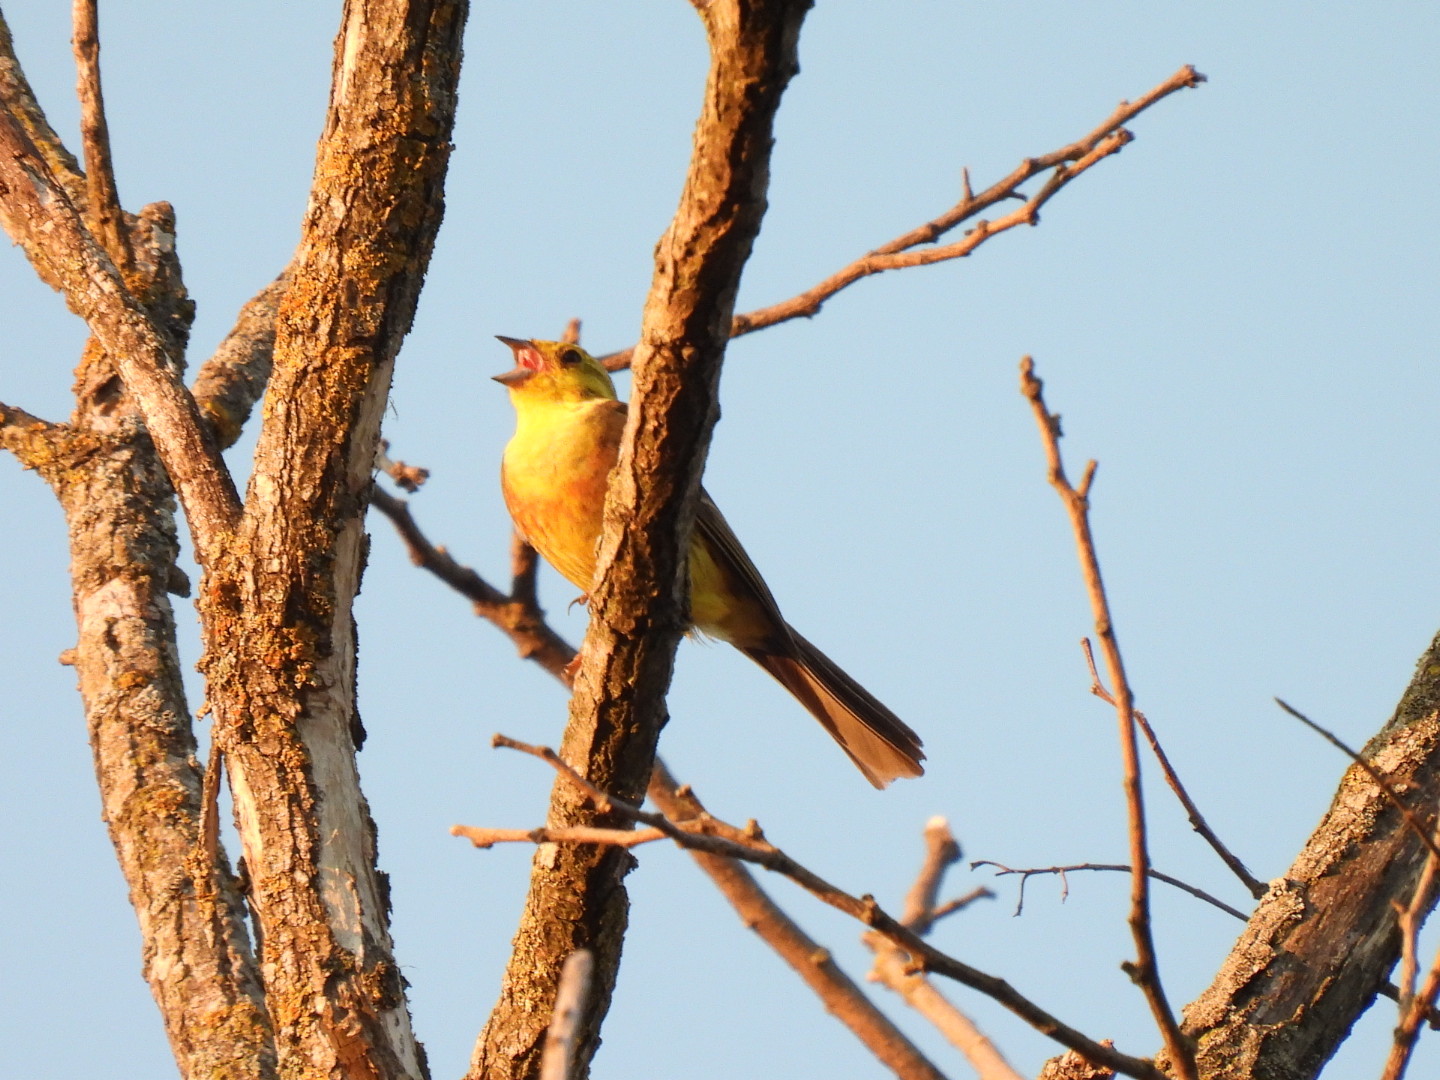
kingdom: Animalia
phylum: Chordata
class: Aves
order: Passeriformes
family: Emberizidae
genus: Emberiza
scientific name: Emberiza citrinella
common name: Yellowhammer
